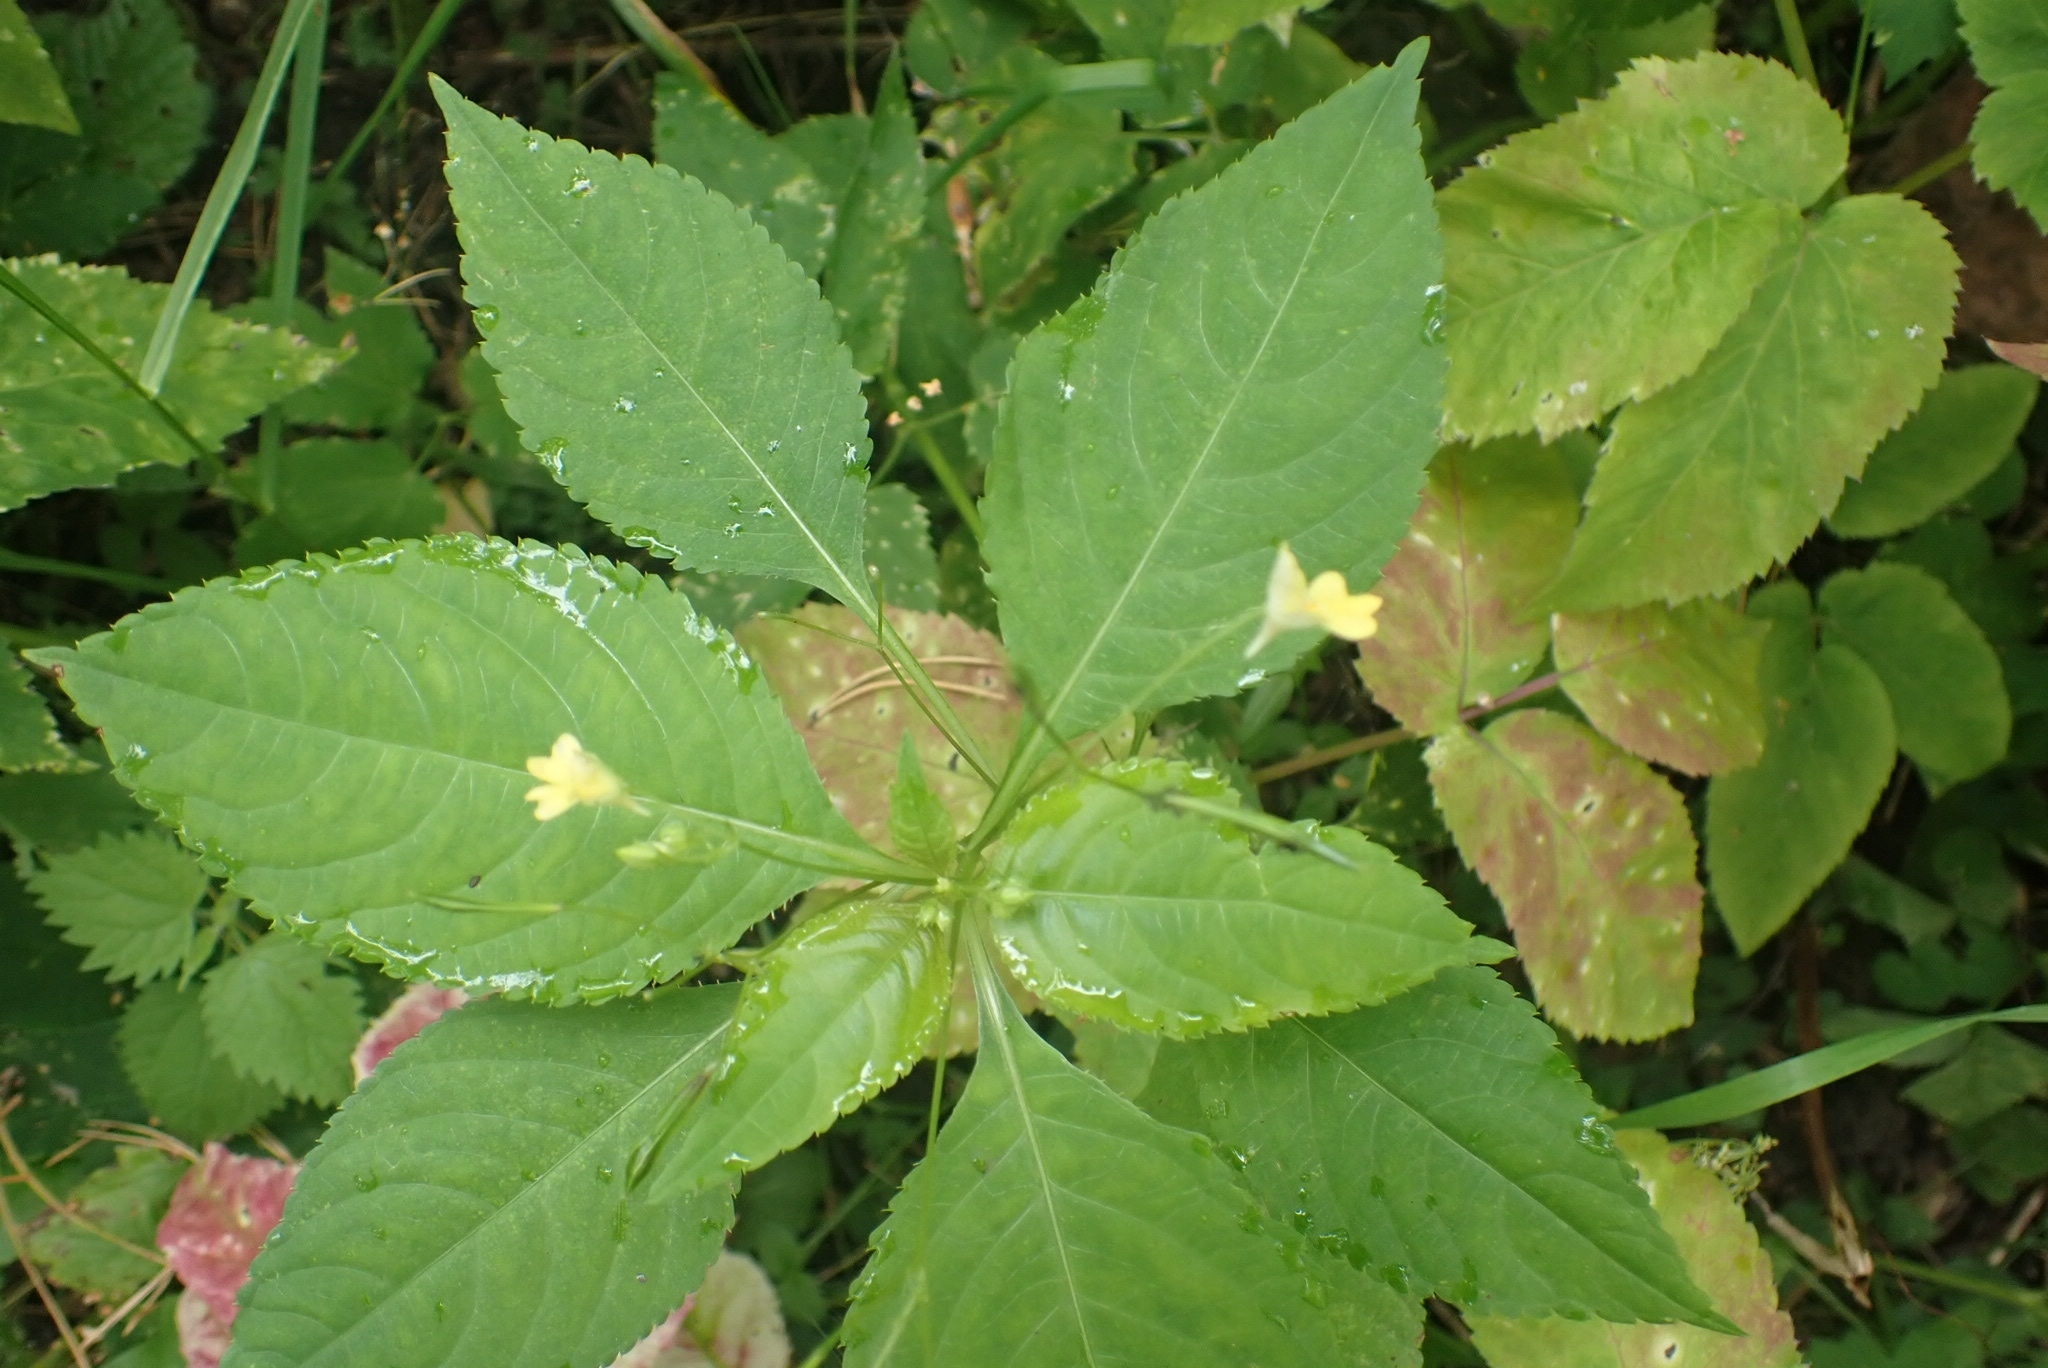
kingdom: Plantae
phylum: Tracheophyta
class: Magnoliopsida
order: Ericales
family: Balsaminaceae
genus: Impatiens
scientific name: Impatiens parviflora
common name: Small balsam
